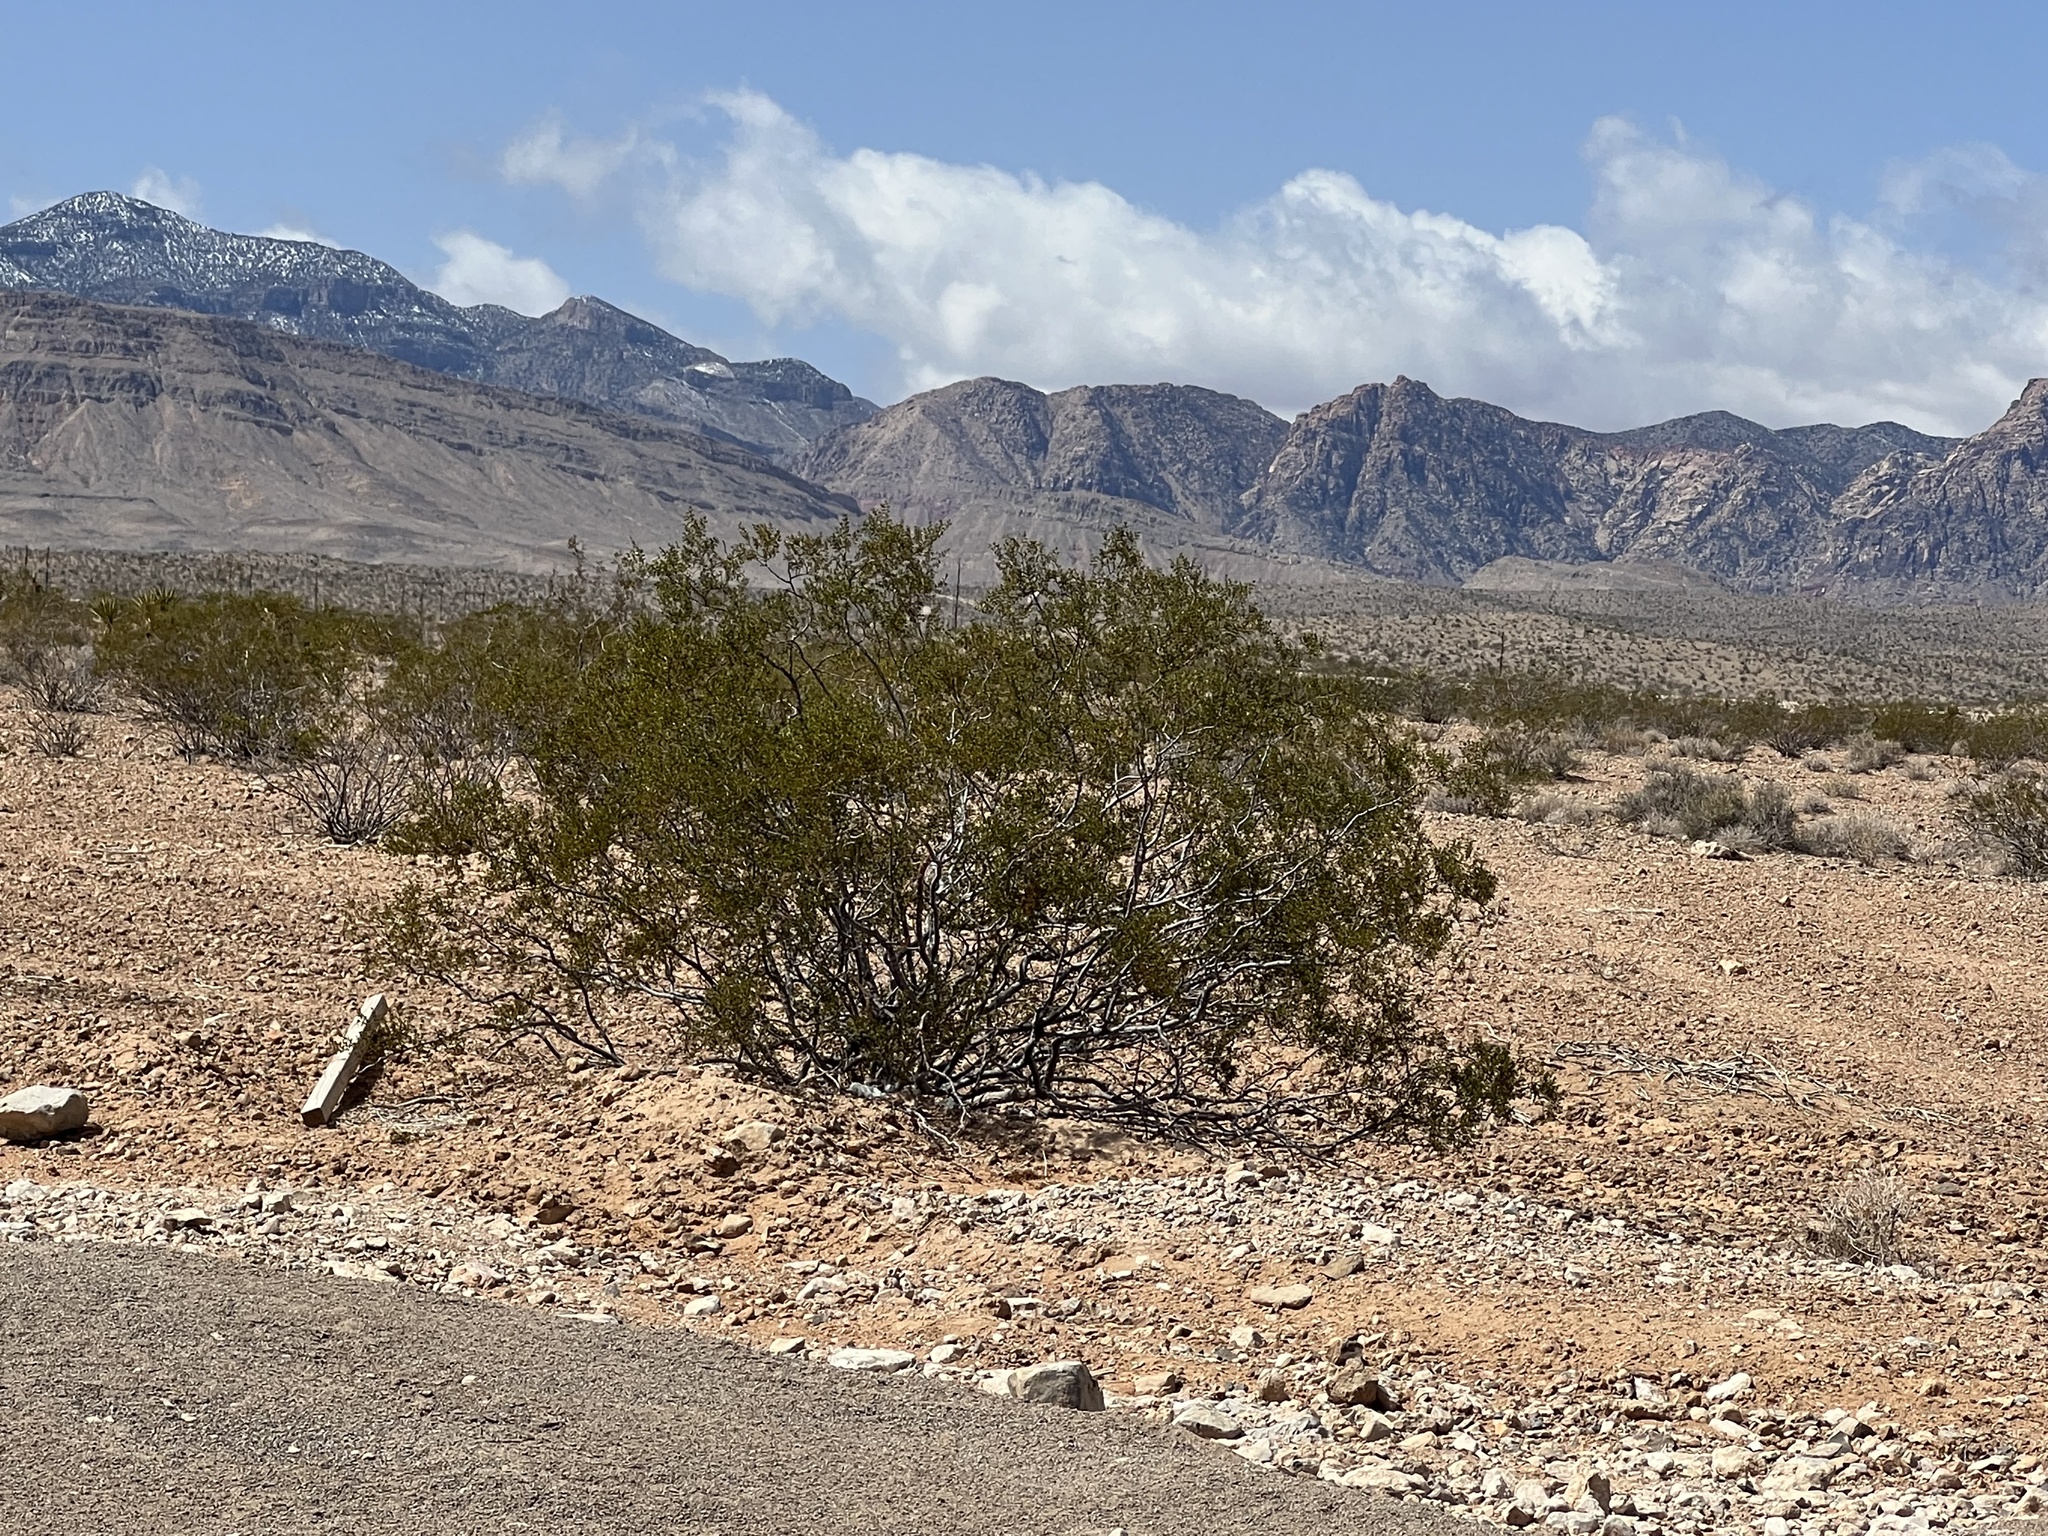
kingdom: Plantae
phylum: Tracheophyta
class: Magnoliopsida
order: Zygophyllales
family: Zygophyllaceae
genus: Larrea
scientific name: Larrea tridentata
